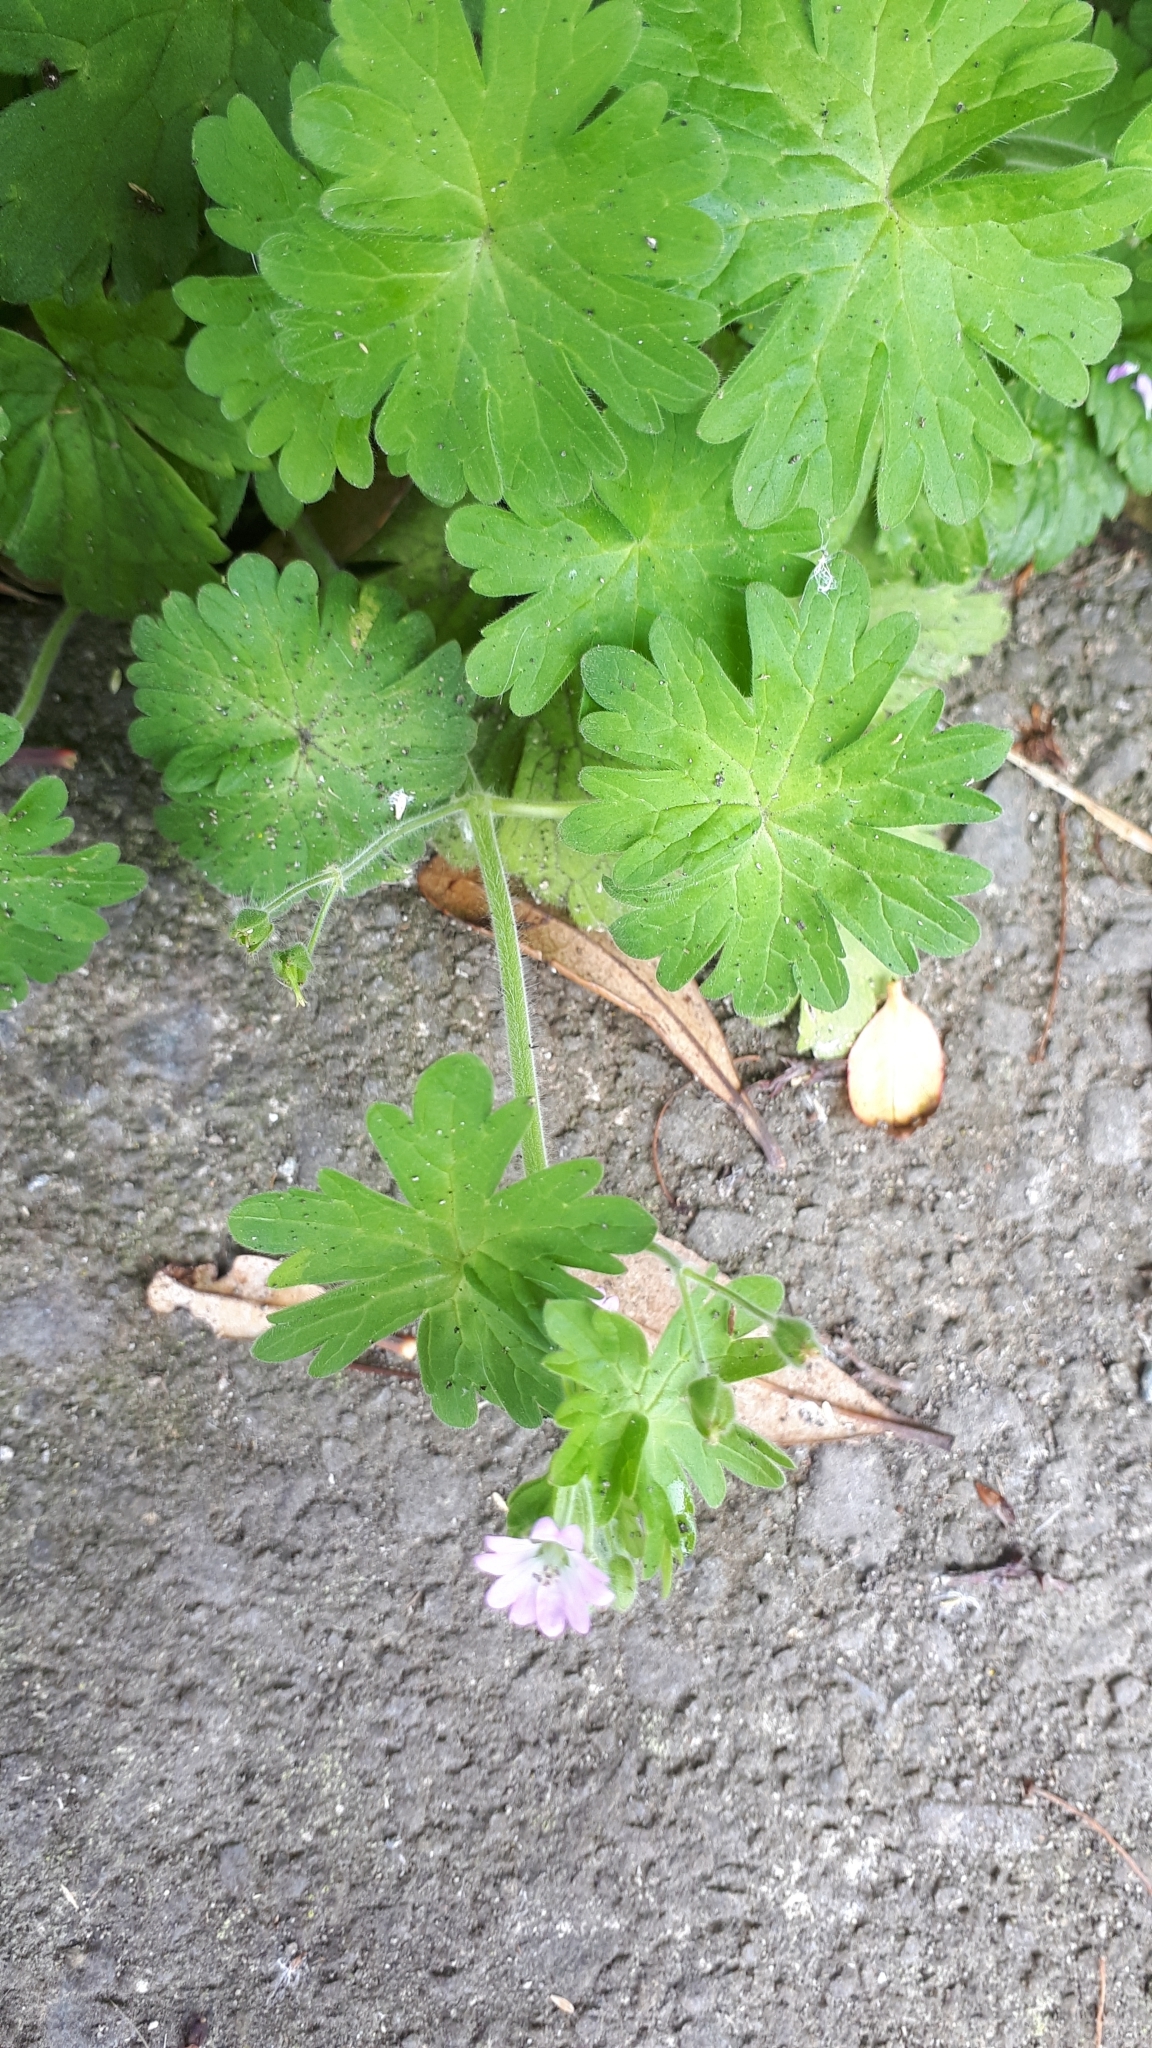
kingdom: Plantae
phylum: Tracheophyta
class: Magnoliopsida
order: Geraniales
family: Geraniaceae
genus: Geranium
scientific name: Geranium molle
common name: Dove's-foot crane's-bill
